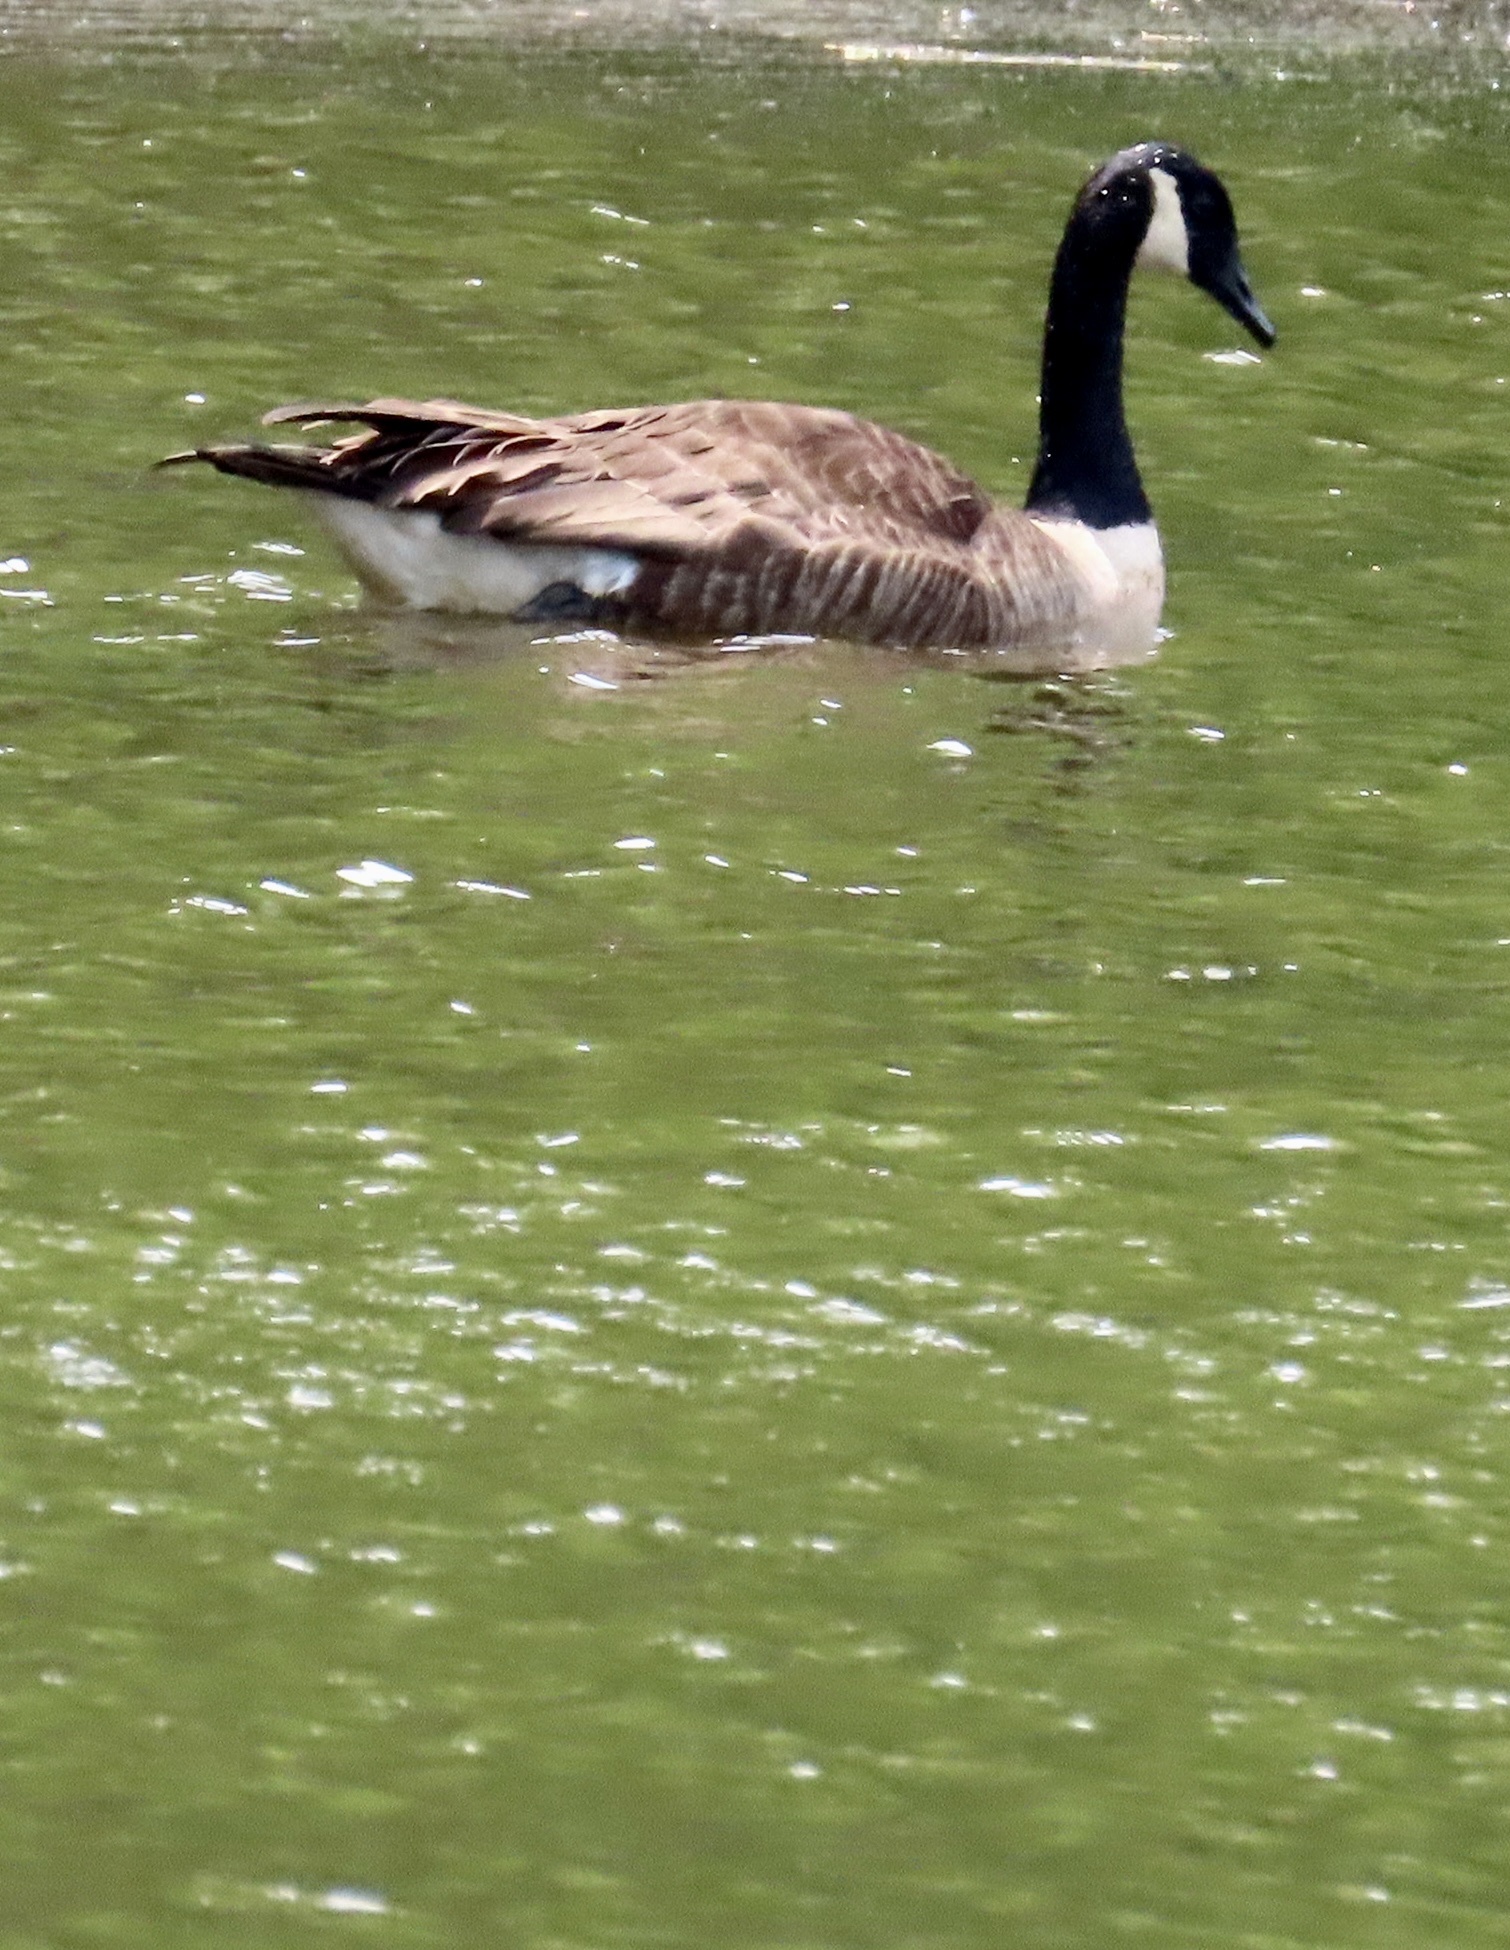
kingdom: Animalia
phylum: Chordata
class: Aves
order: Anseriformes
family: Anatidae
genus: Branta
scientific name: Branta canadensis
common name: Canada goose
